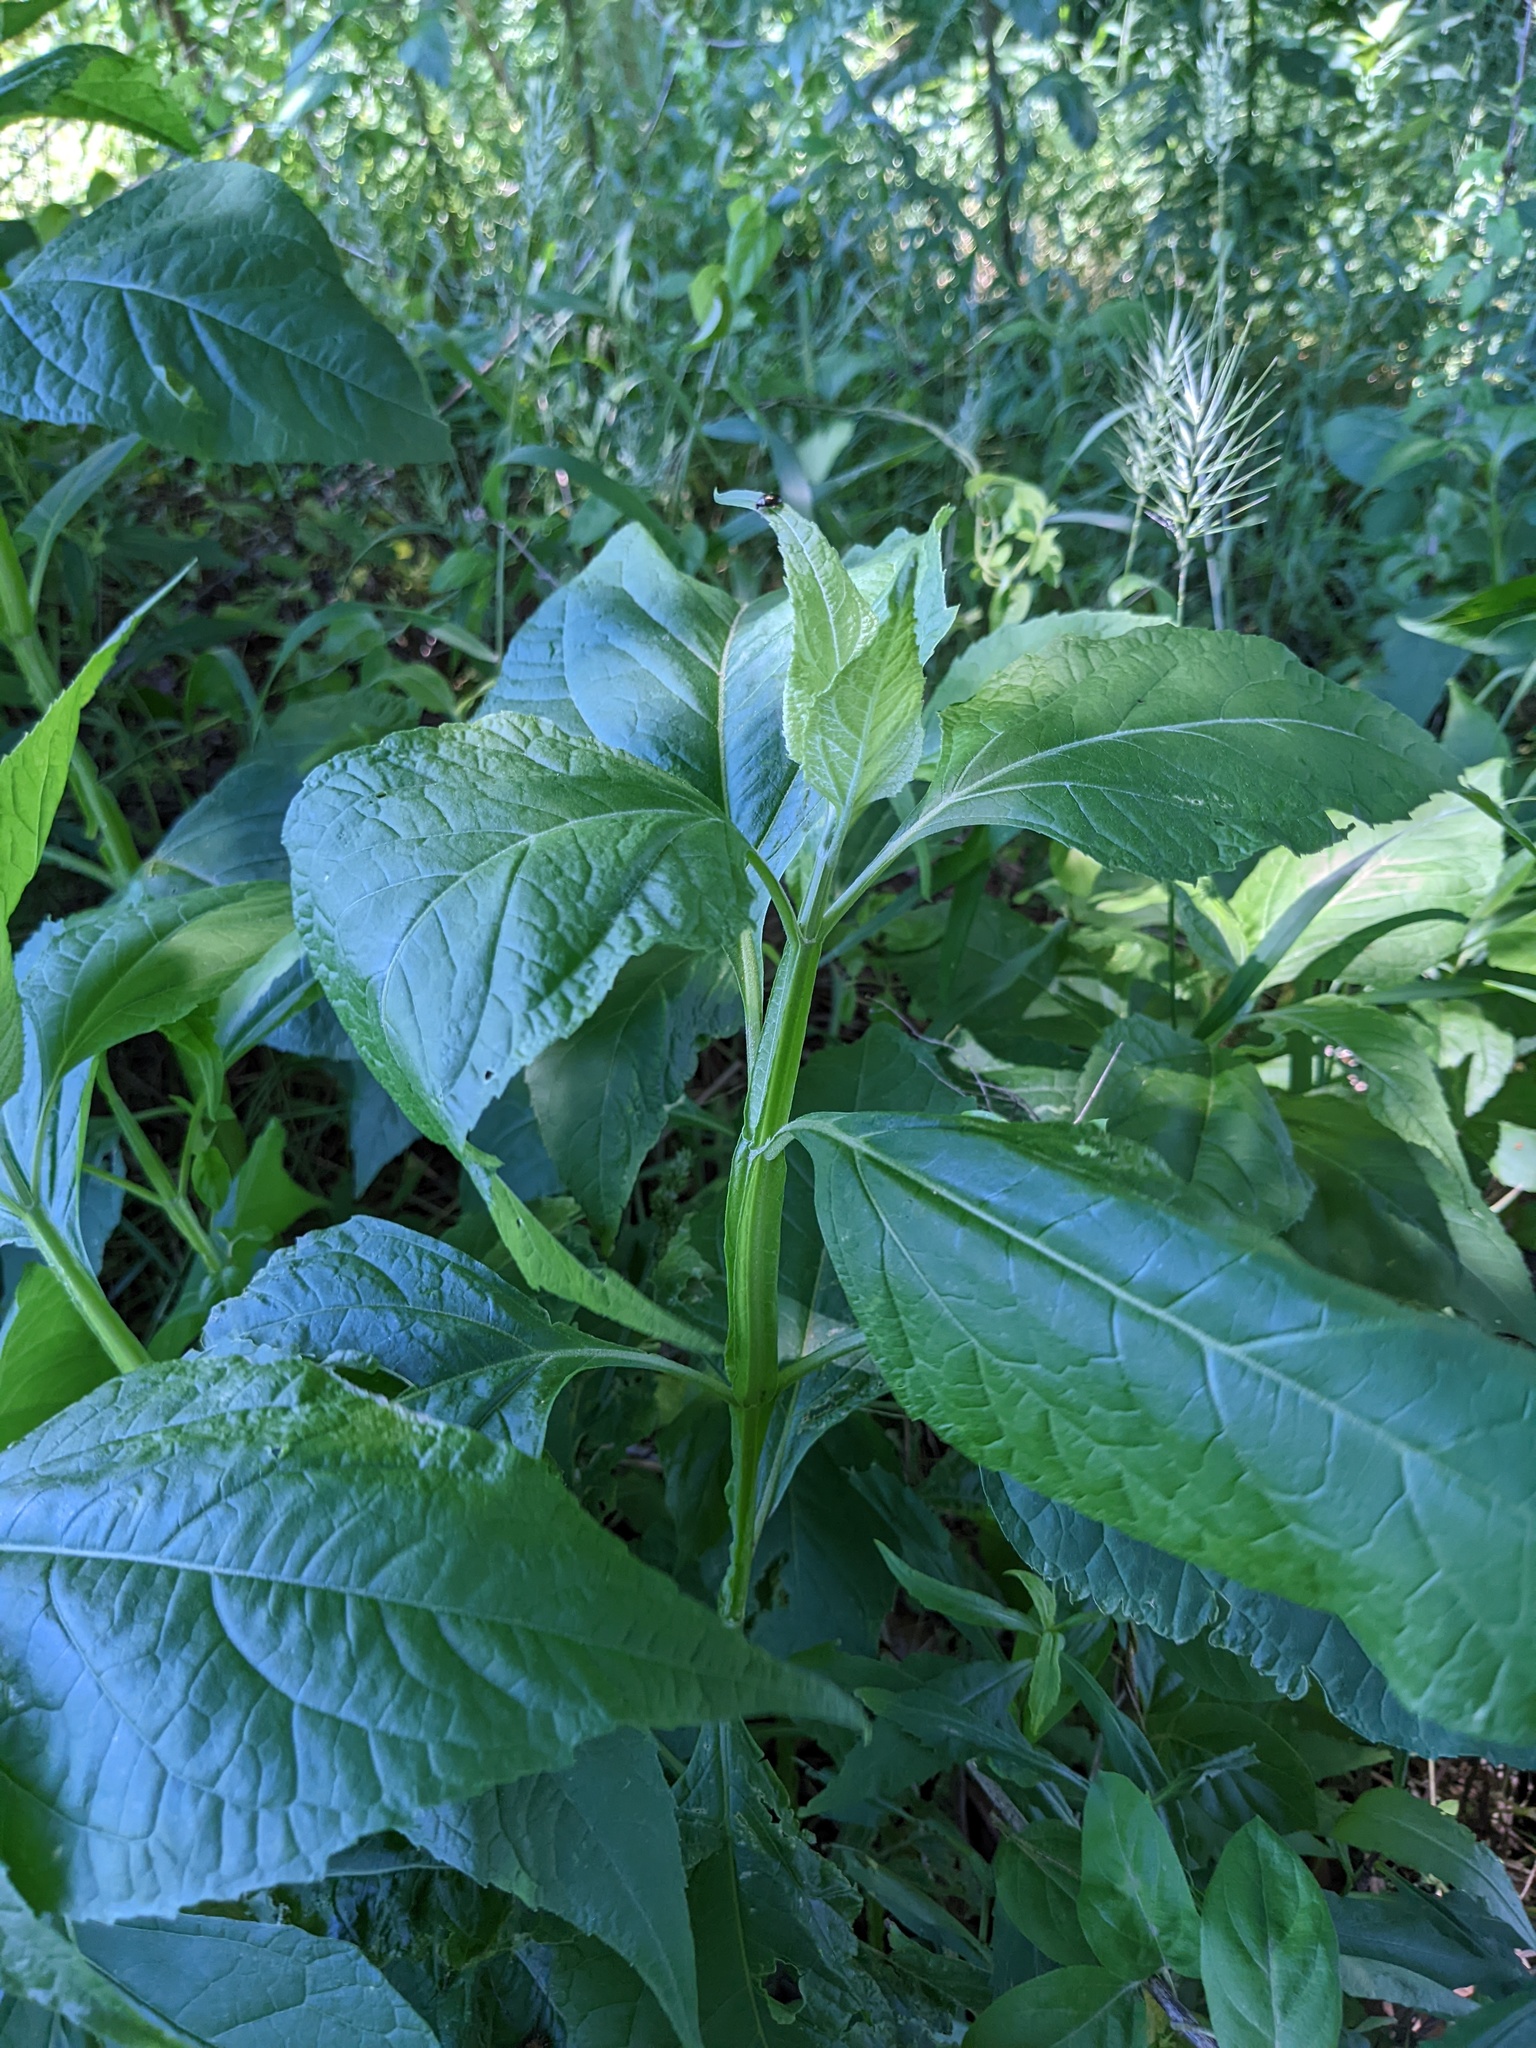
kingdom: Plantae
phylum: Tracheophyta
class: Magnoliopsida
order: Asterales
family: Asteraceae
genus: Verbesina
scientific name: Verbesina occidentalis
